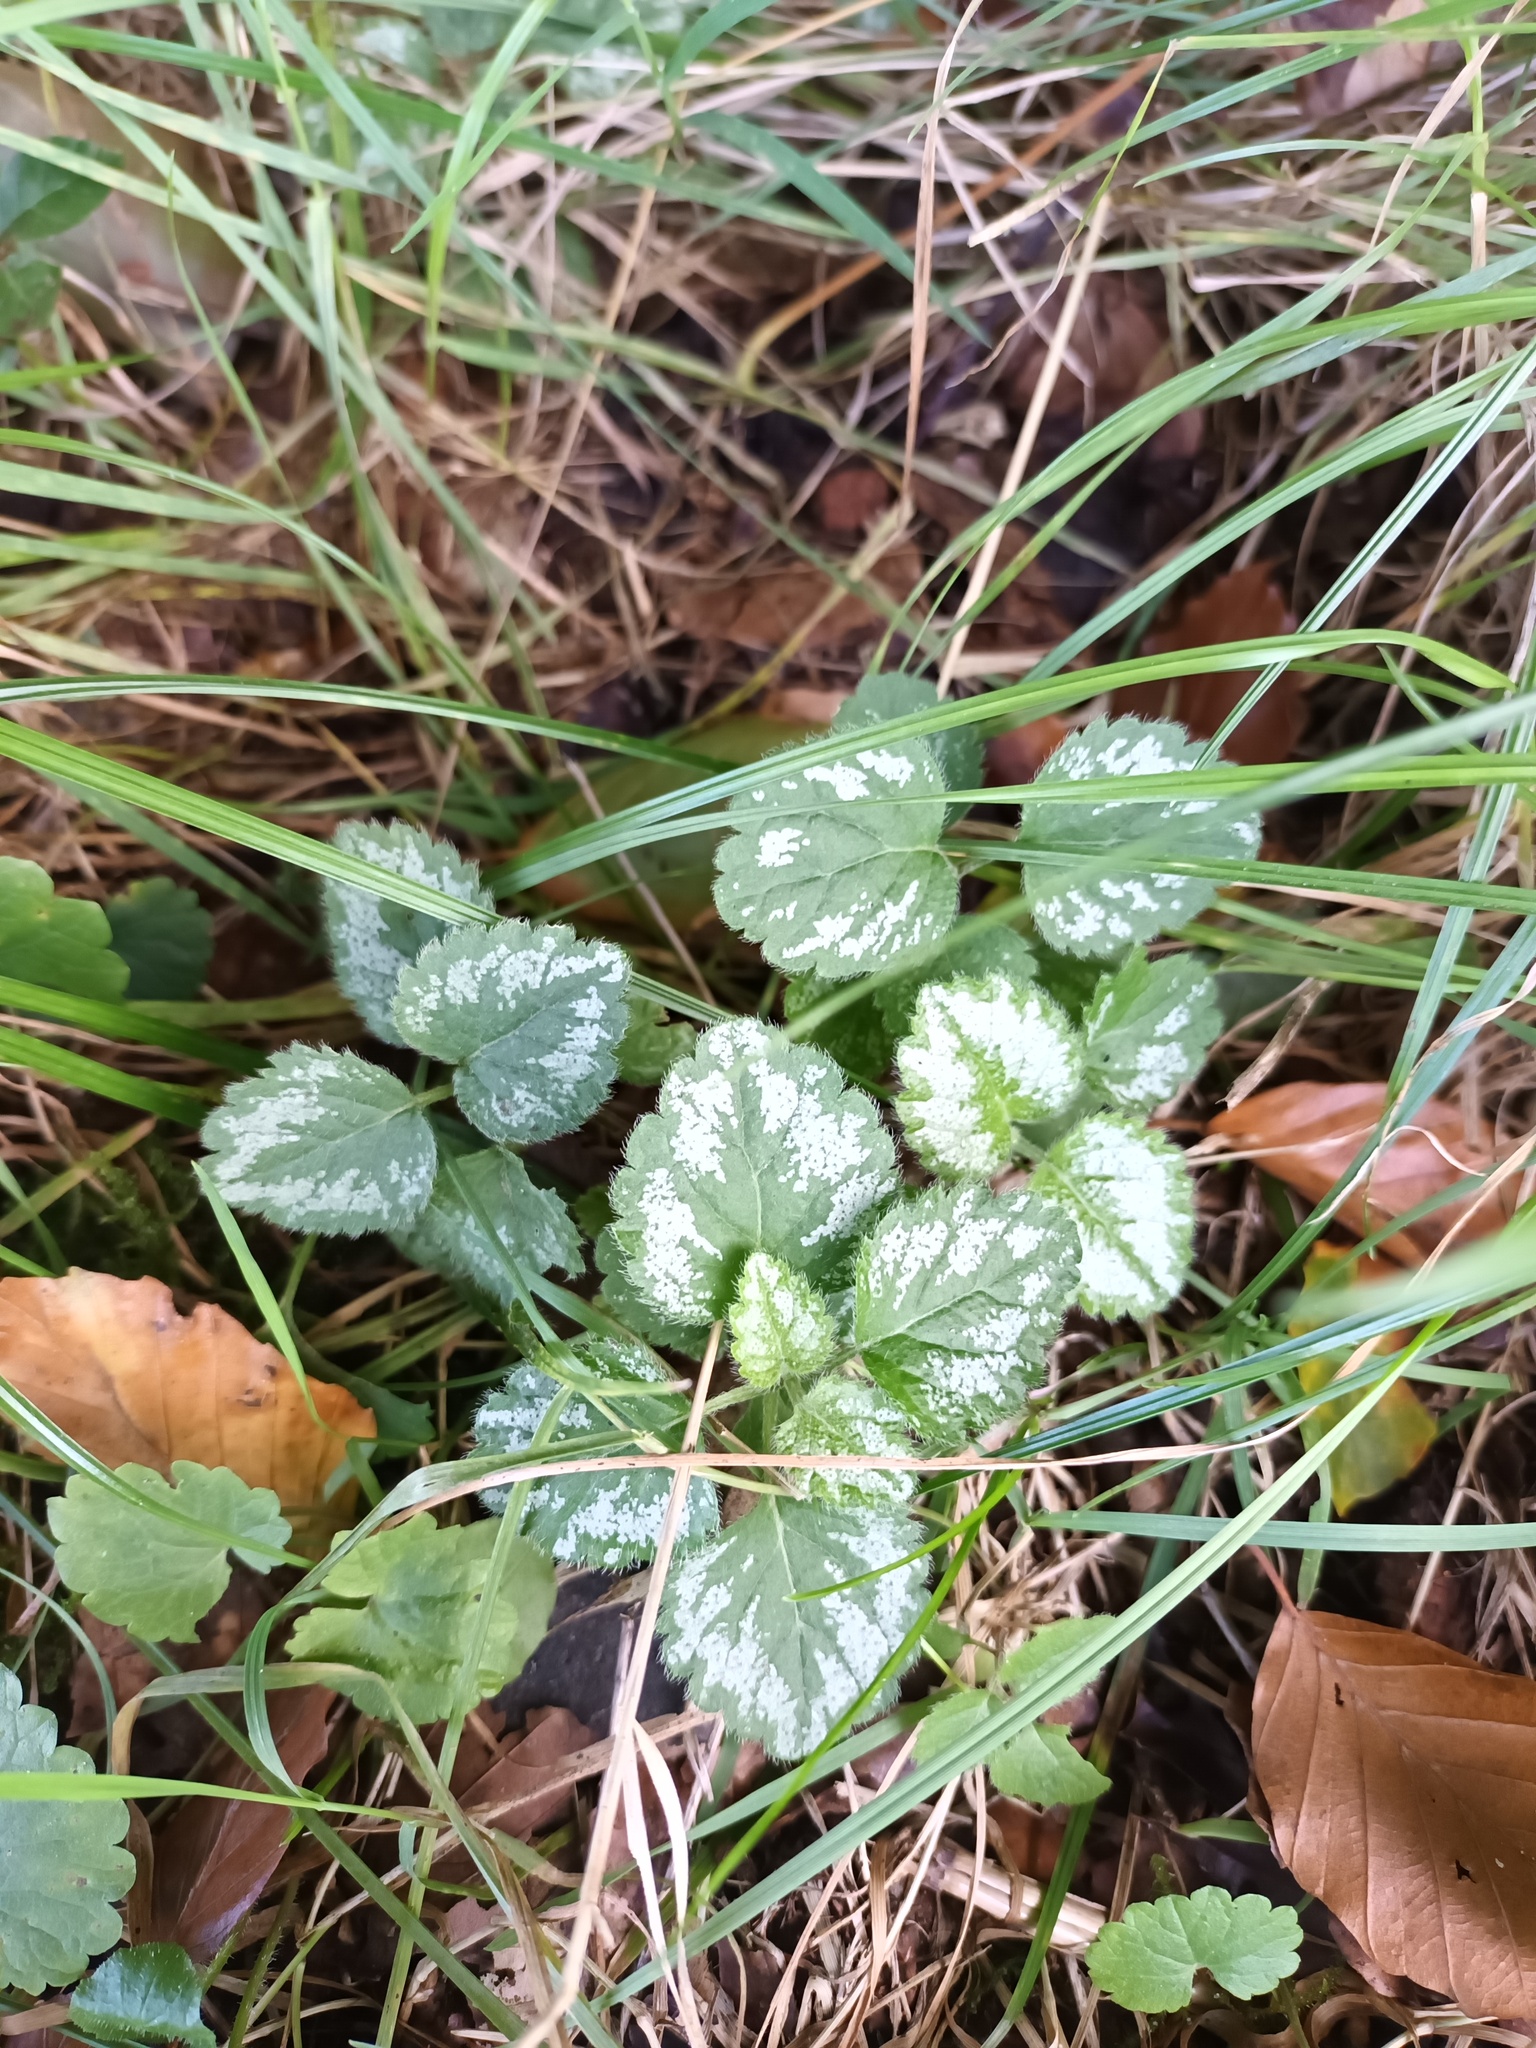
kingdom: Plantae
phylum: Tracheophyta
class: Magnoliopsida
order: Lamiales
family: Lamiaceae
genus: Lamium
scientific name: Lamium galeobdolon
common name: Yellow archangel
